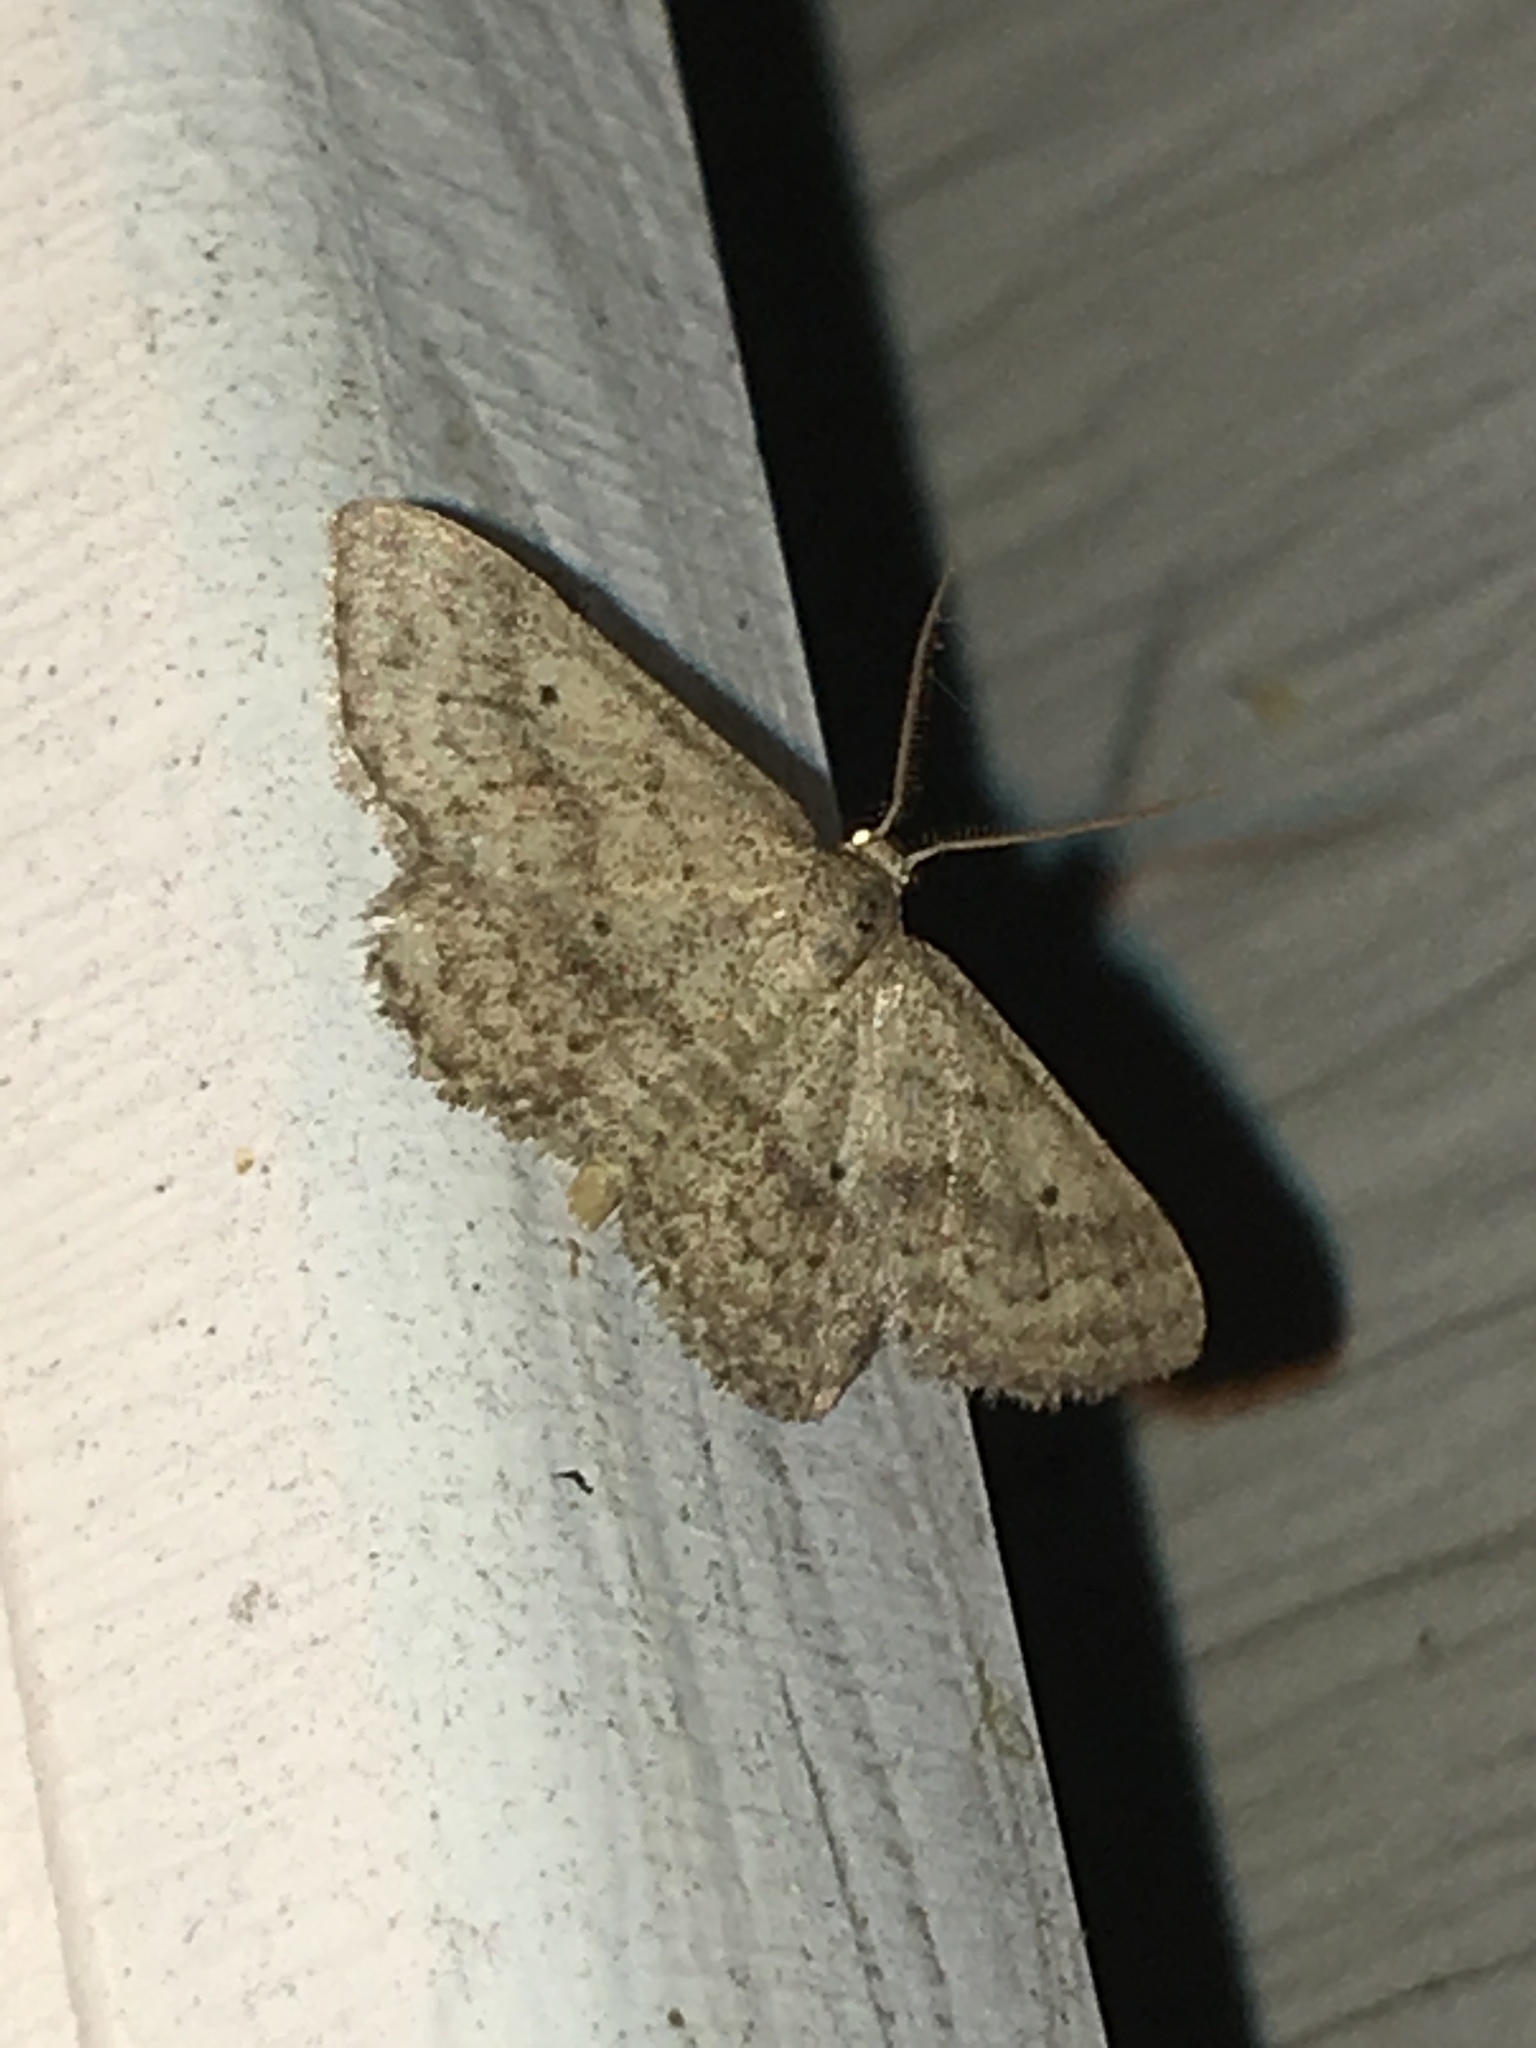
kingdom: Animalia
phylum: Arthropoda
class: Insecta
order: Lepidoptera
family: Geometridae
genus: Lobocleta
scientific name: Lobocleta ossularia
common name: Drab brown wave
